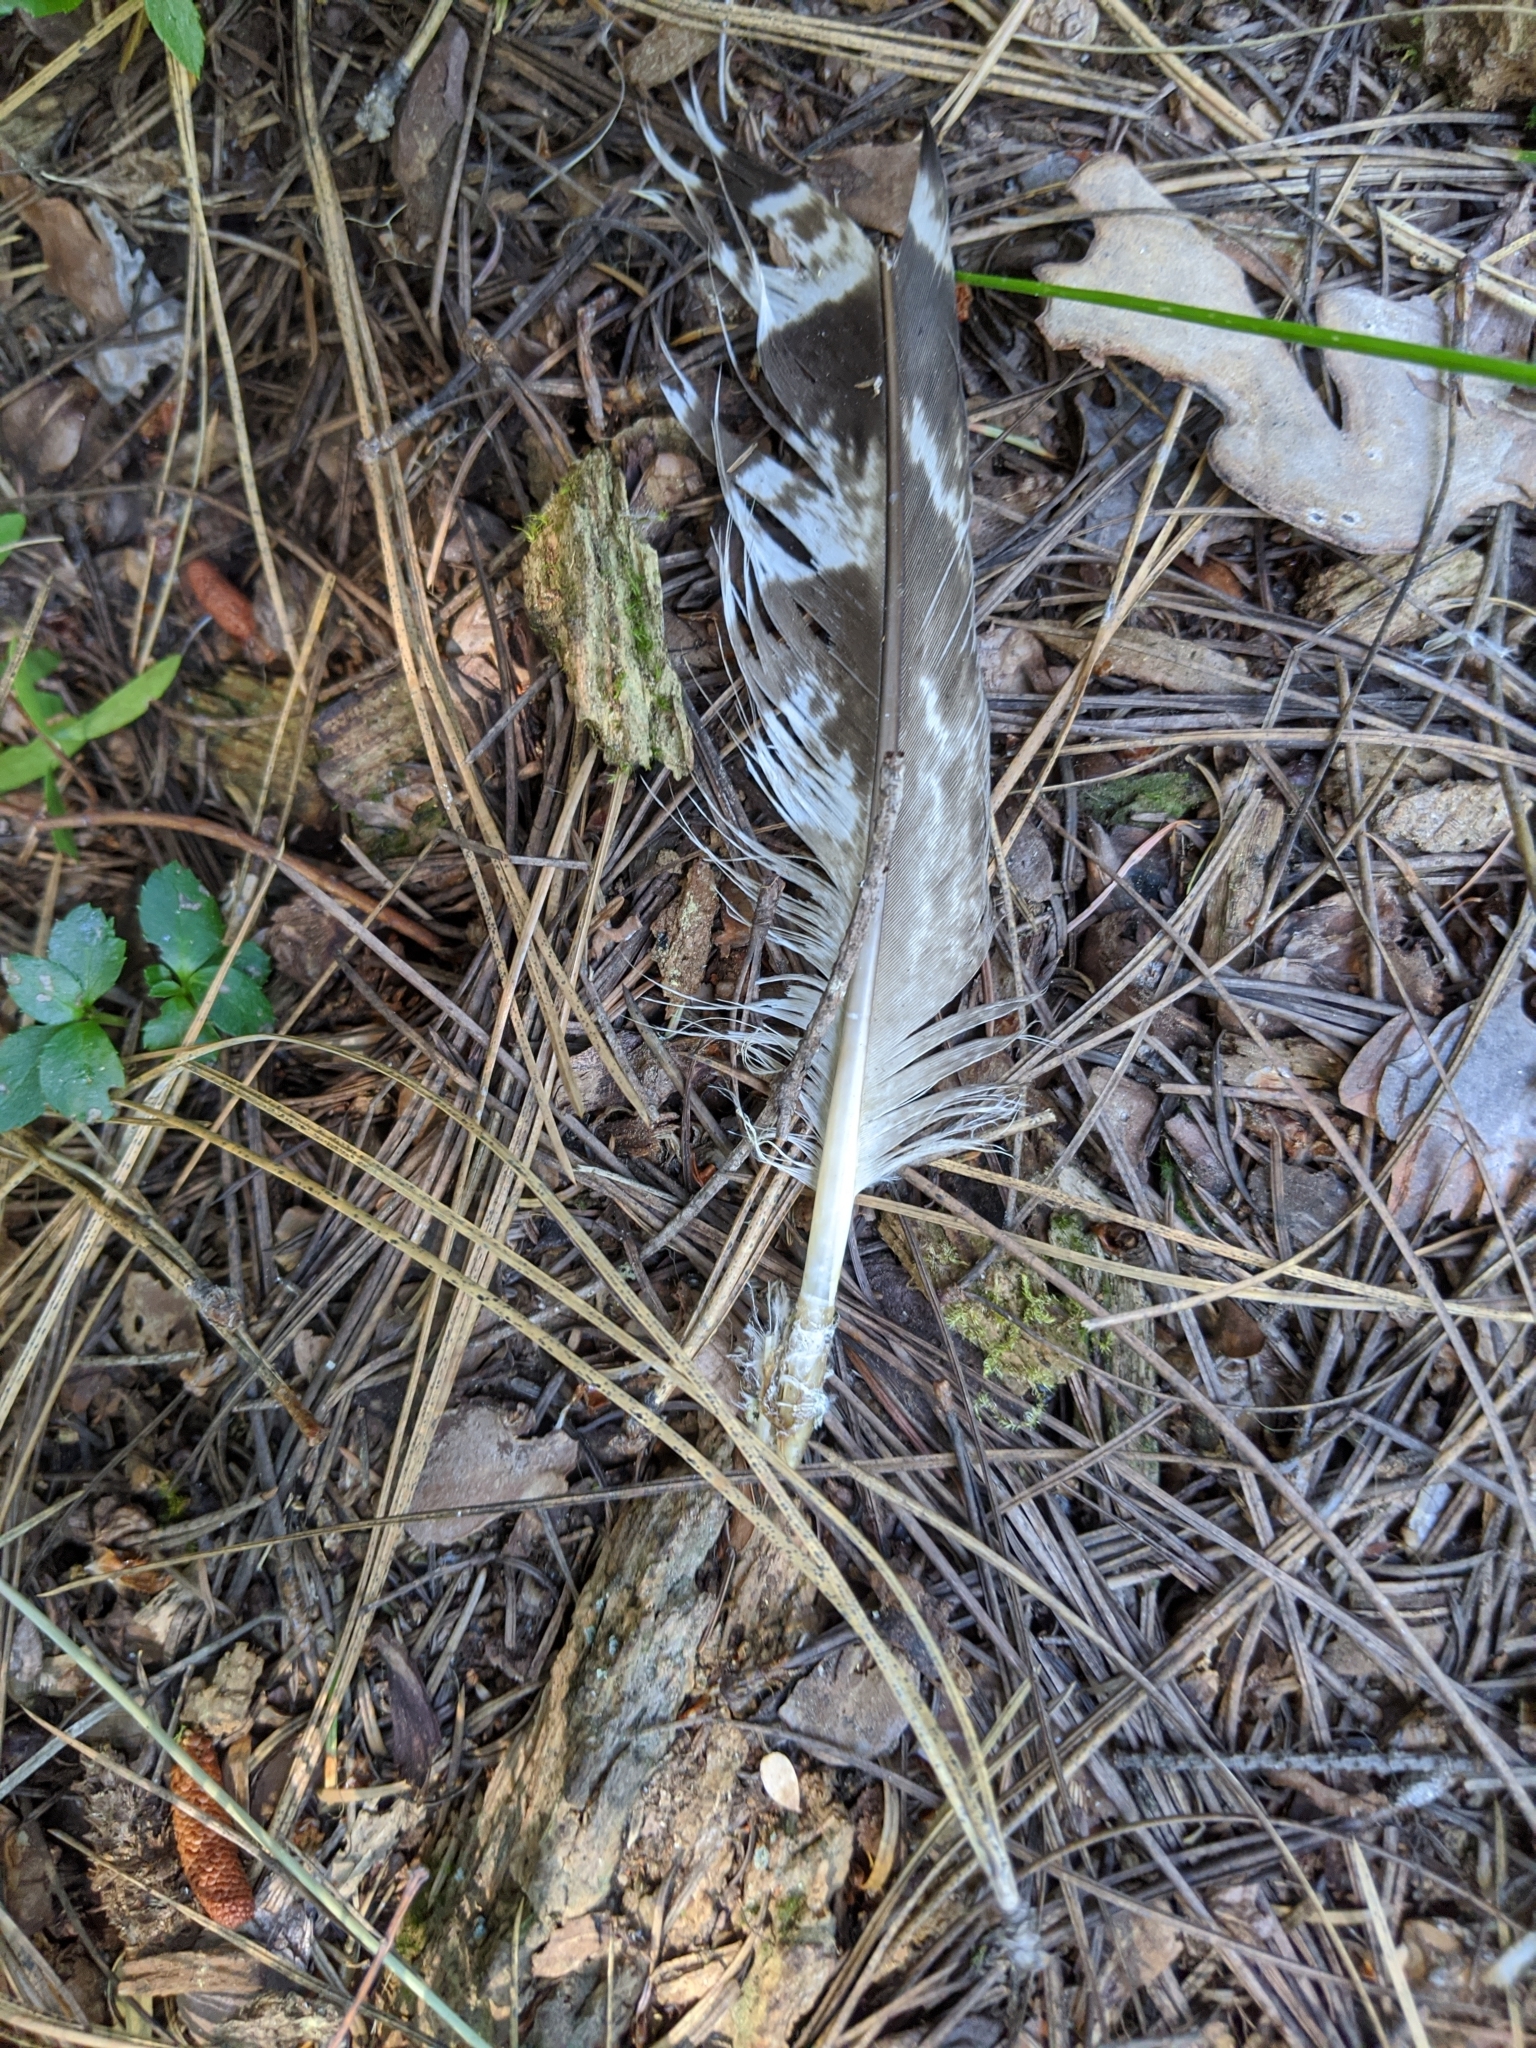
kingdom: Animalia
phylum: Chordata
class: Aves
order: Accipitriformes
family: Accipitridae
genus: Accipiter
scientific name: Accipiter gentilis
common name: Northern goshawk
